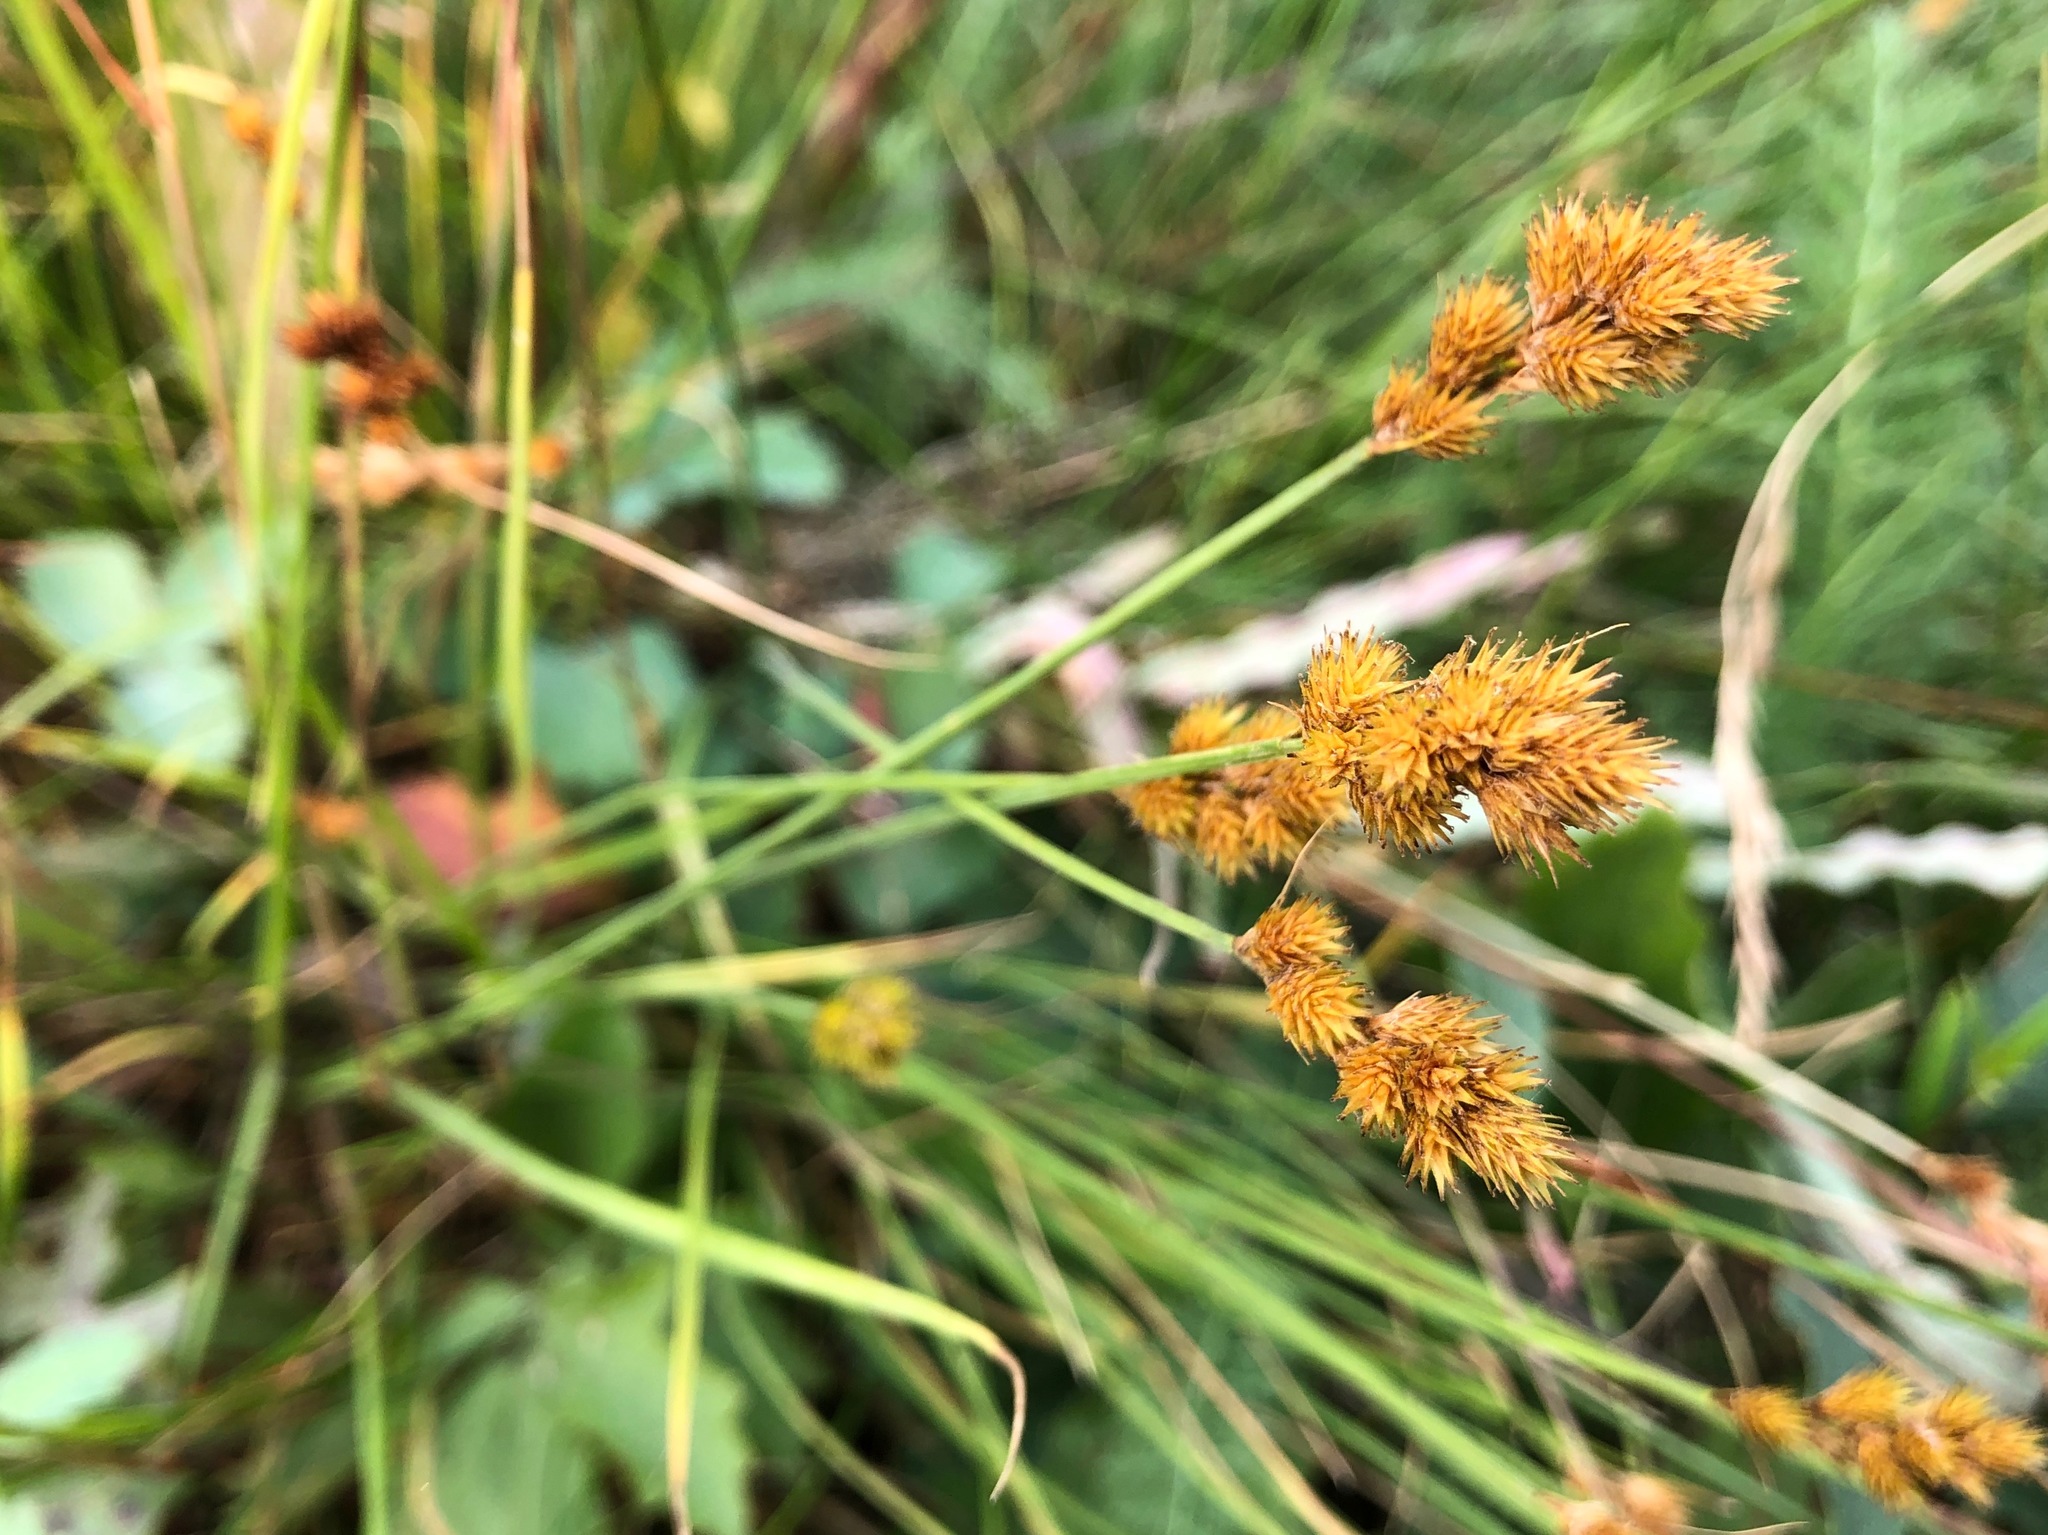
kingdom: Plantae
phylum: Tracheophyta
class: Liliopsida
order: Poales
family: Cyperaceae
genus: Carex
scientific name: Carex crawfordii
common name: Crawford's sedge
